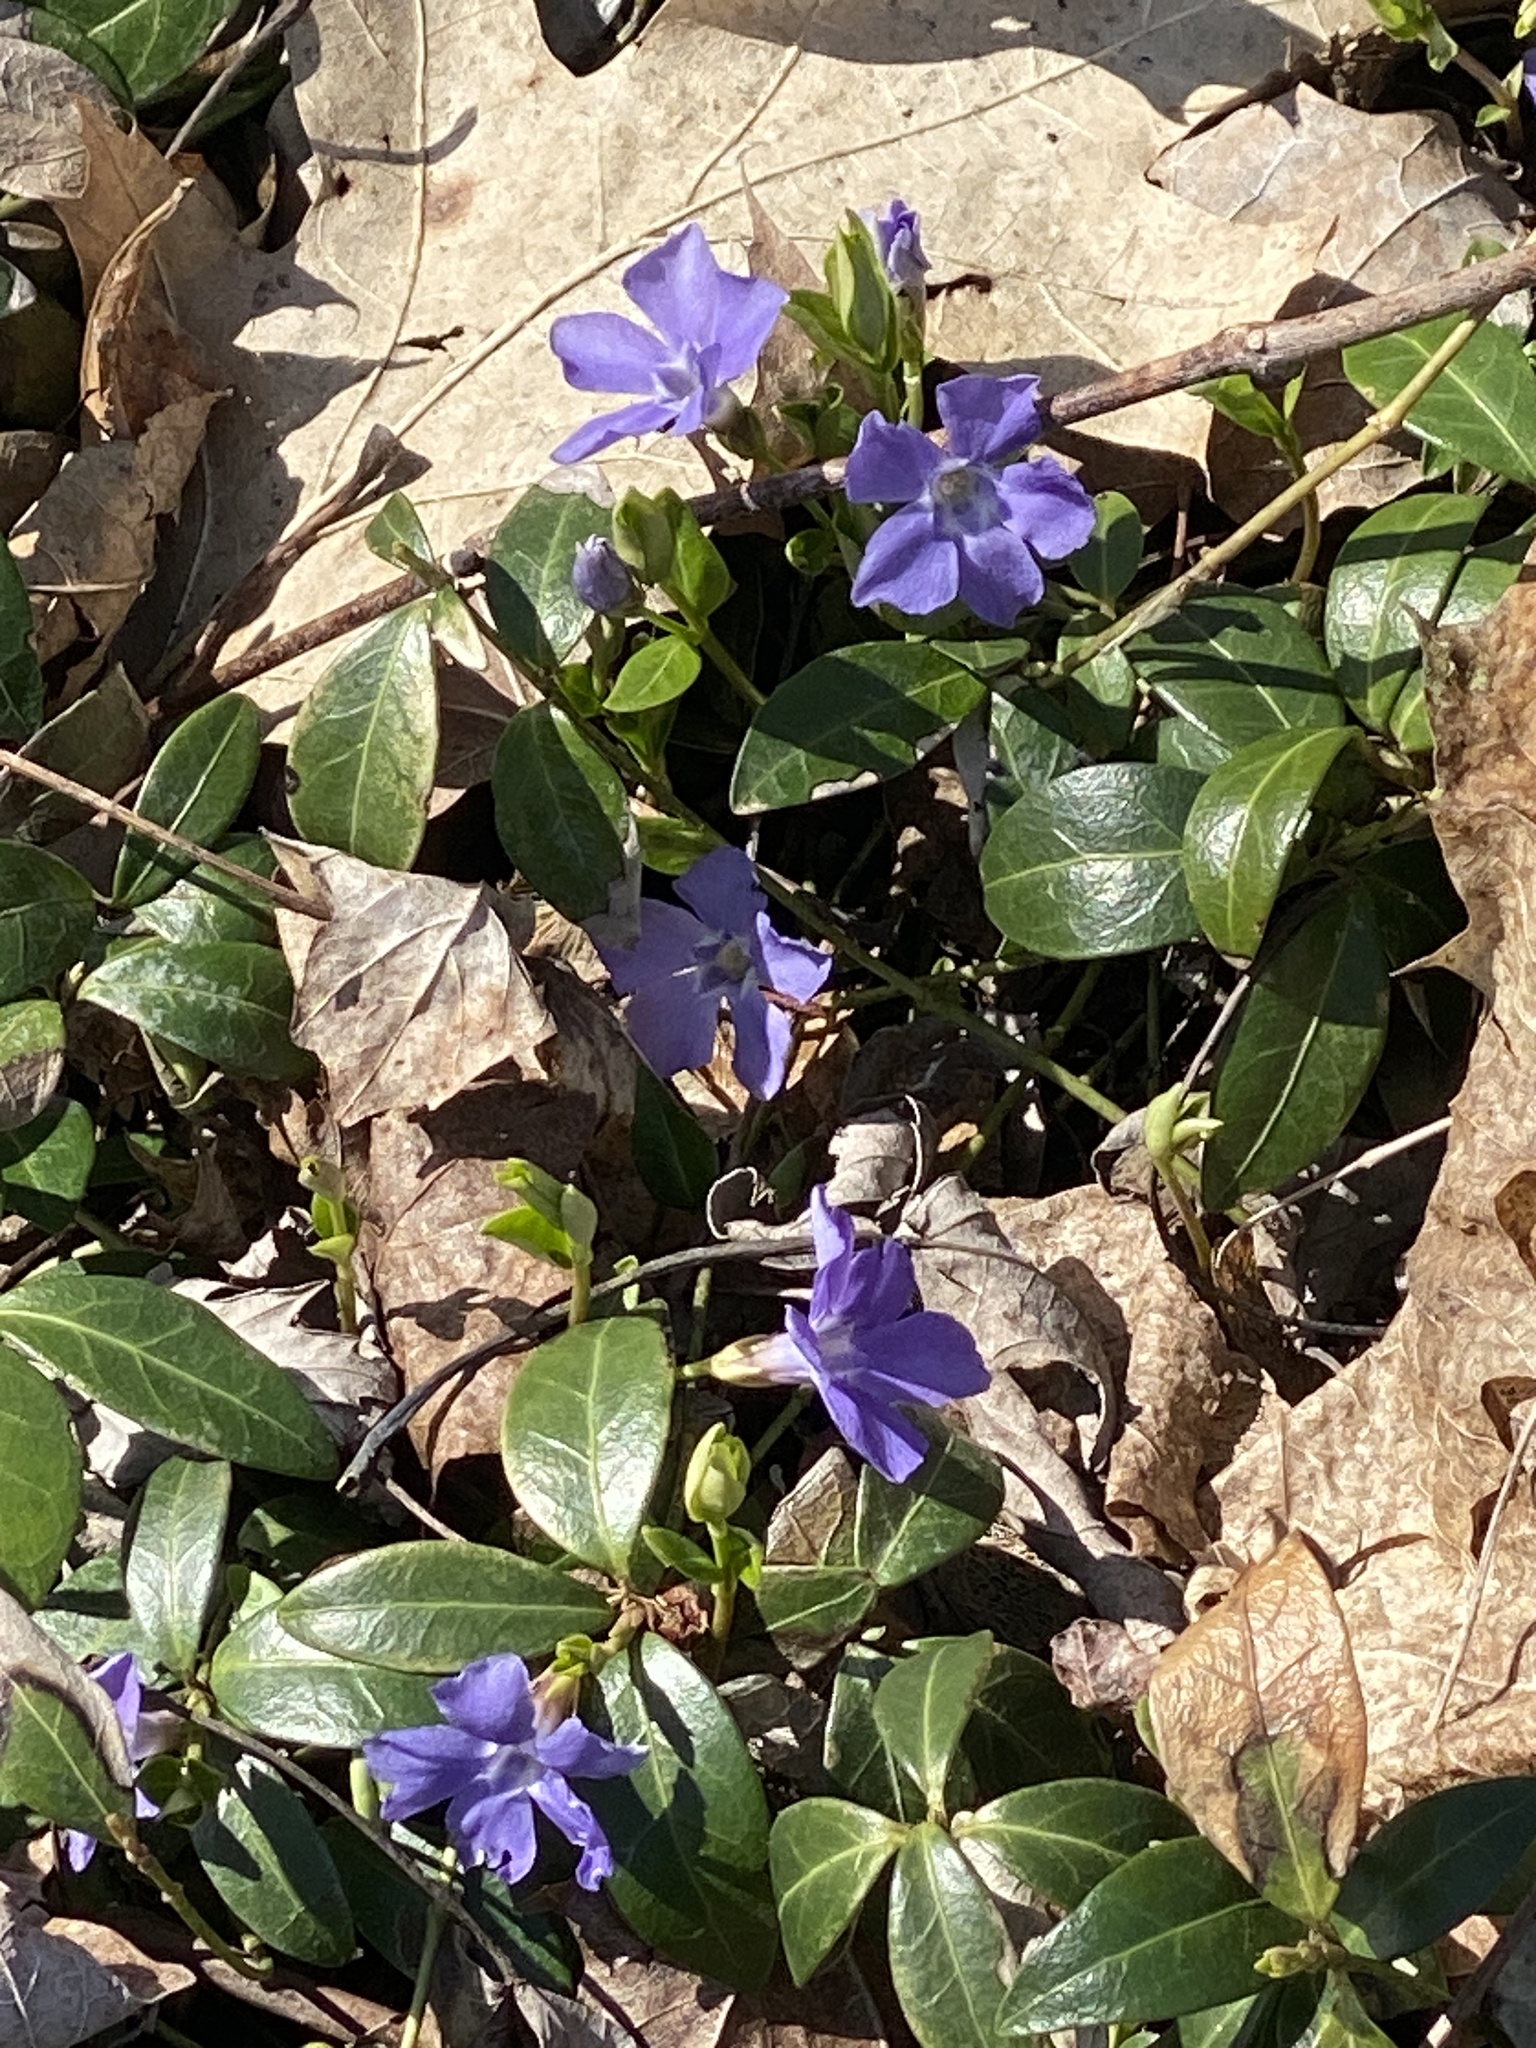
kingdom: Plantae
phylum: Tracheophyta
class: Magnoliopsida
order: Gentianales
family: Apocynaceae
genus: Vinca
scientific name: Vinca minor
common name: Lesser periwinkle
